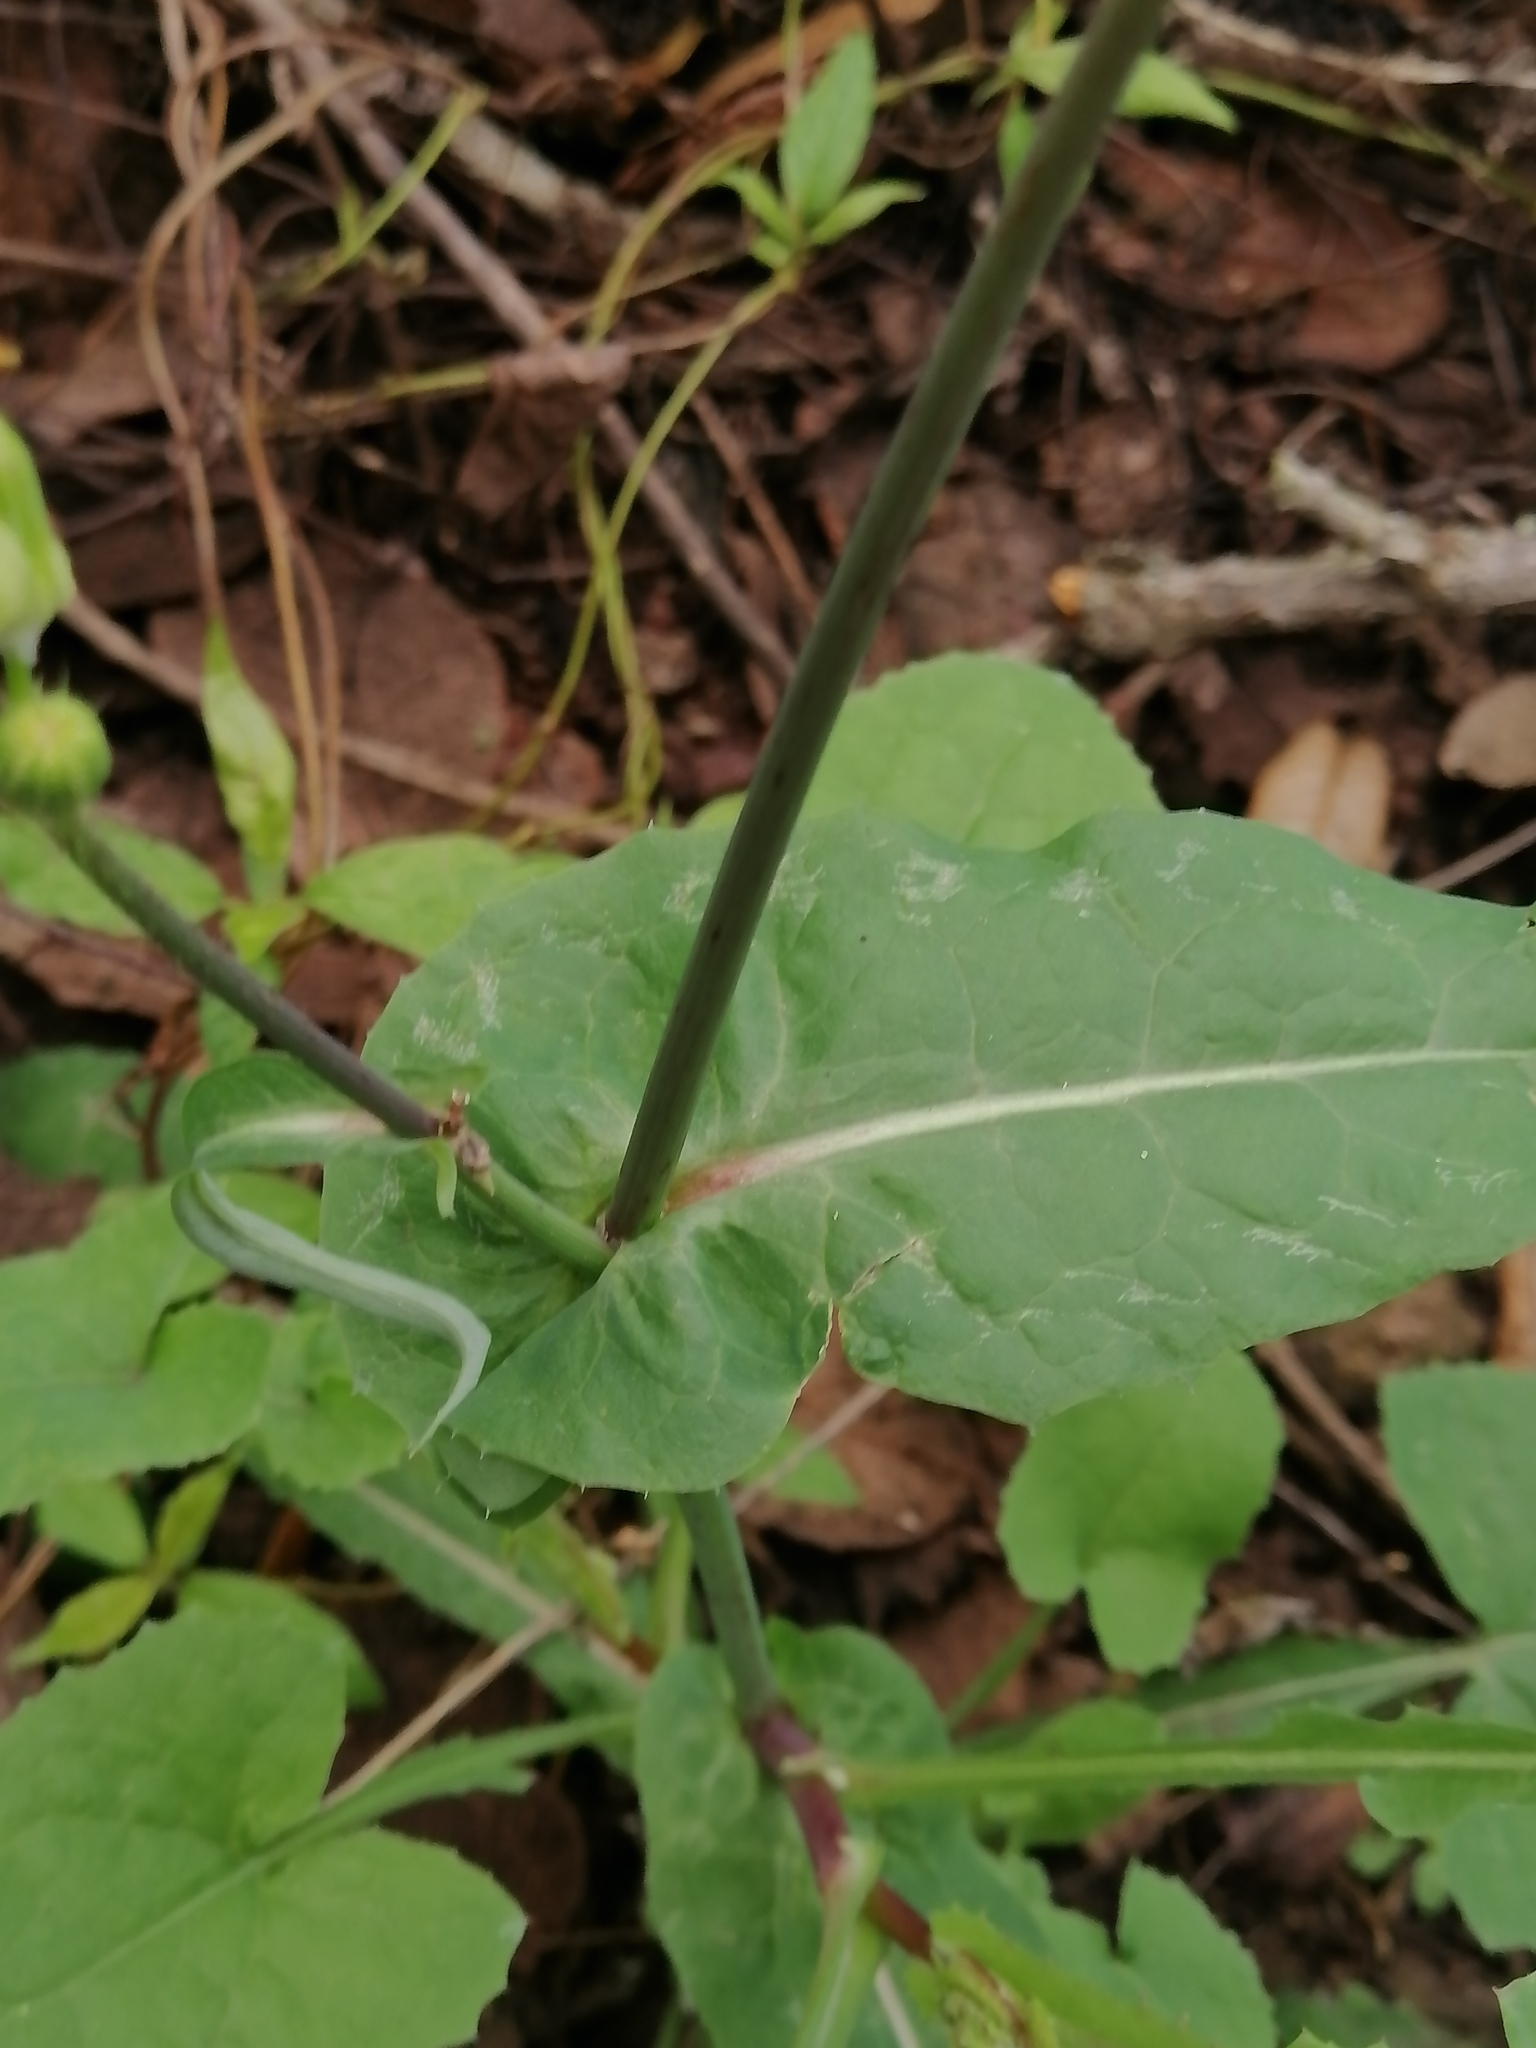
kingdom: Plantae
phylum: Tracheophyta
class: Magnoliopsida
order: Asterales
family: Asteraceae
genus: Sonchus
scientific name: Sonchus oleraceus
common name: Common sowthistle
